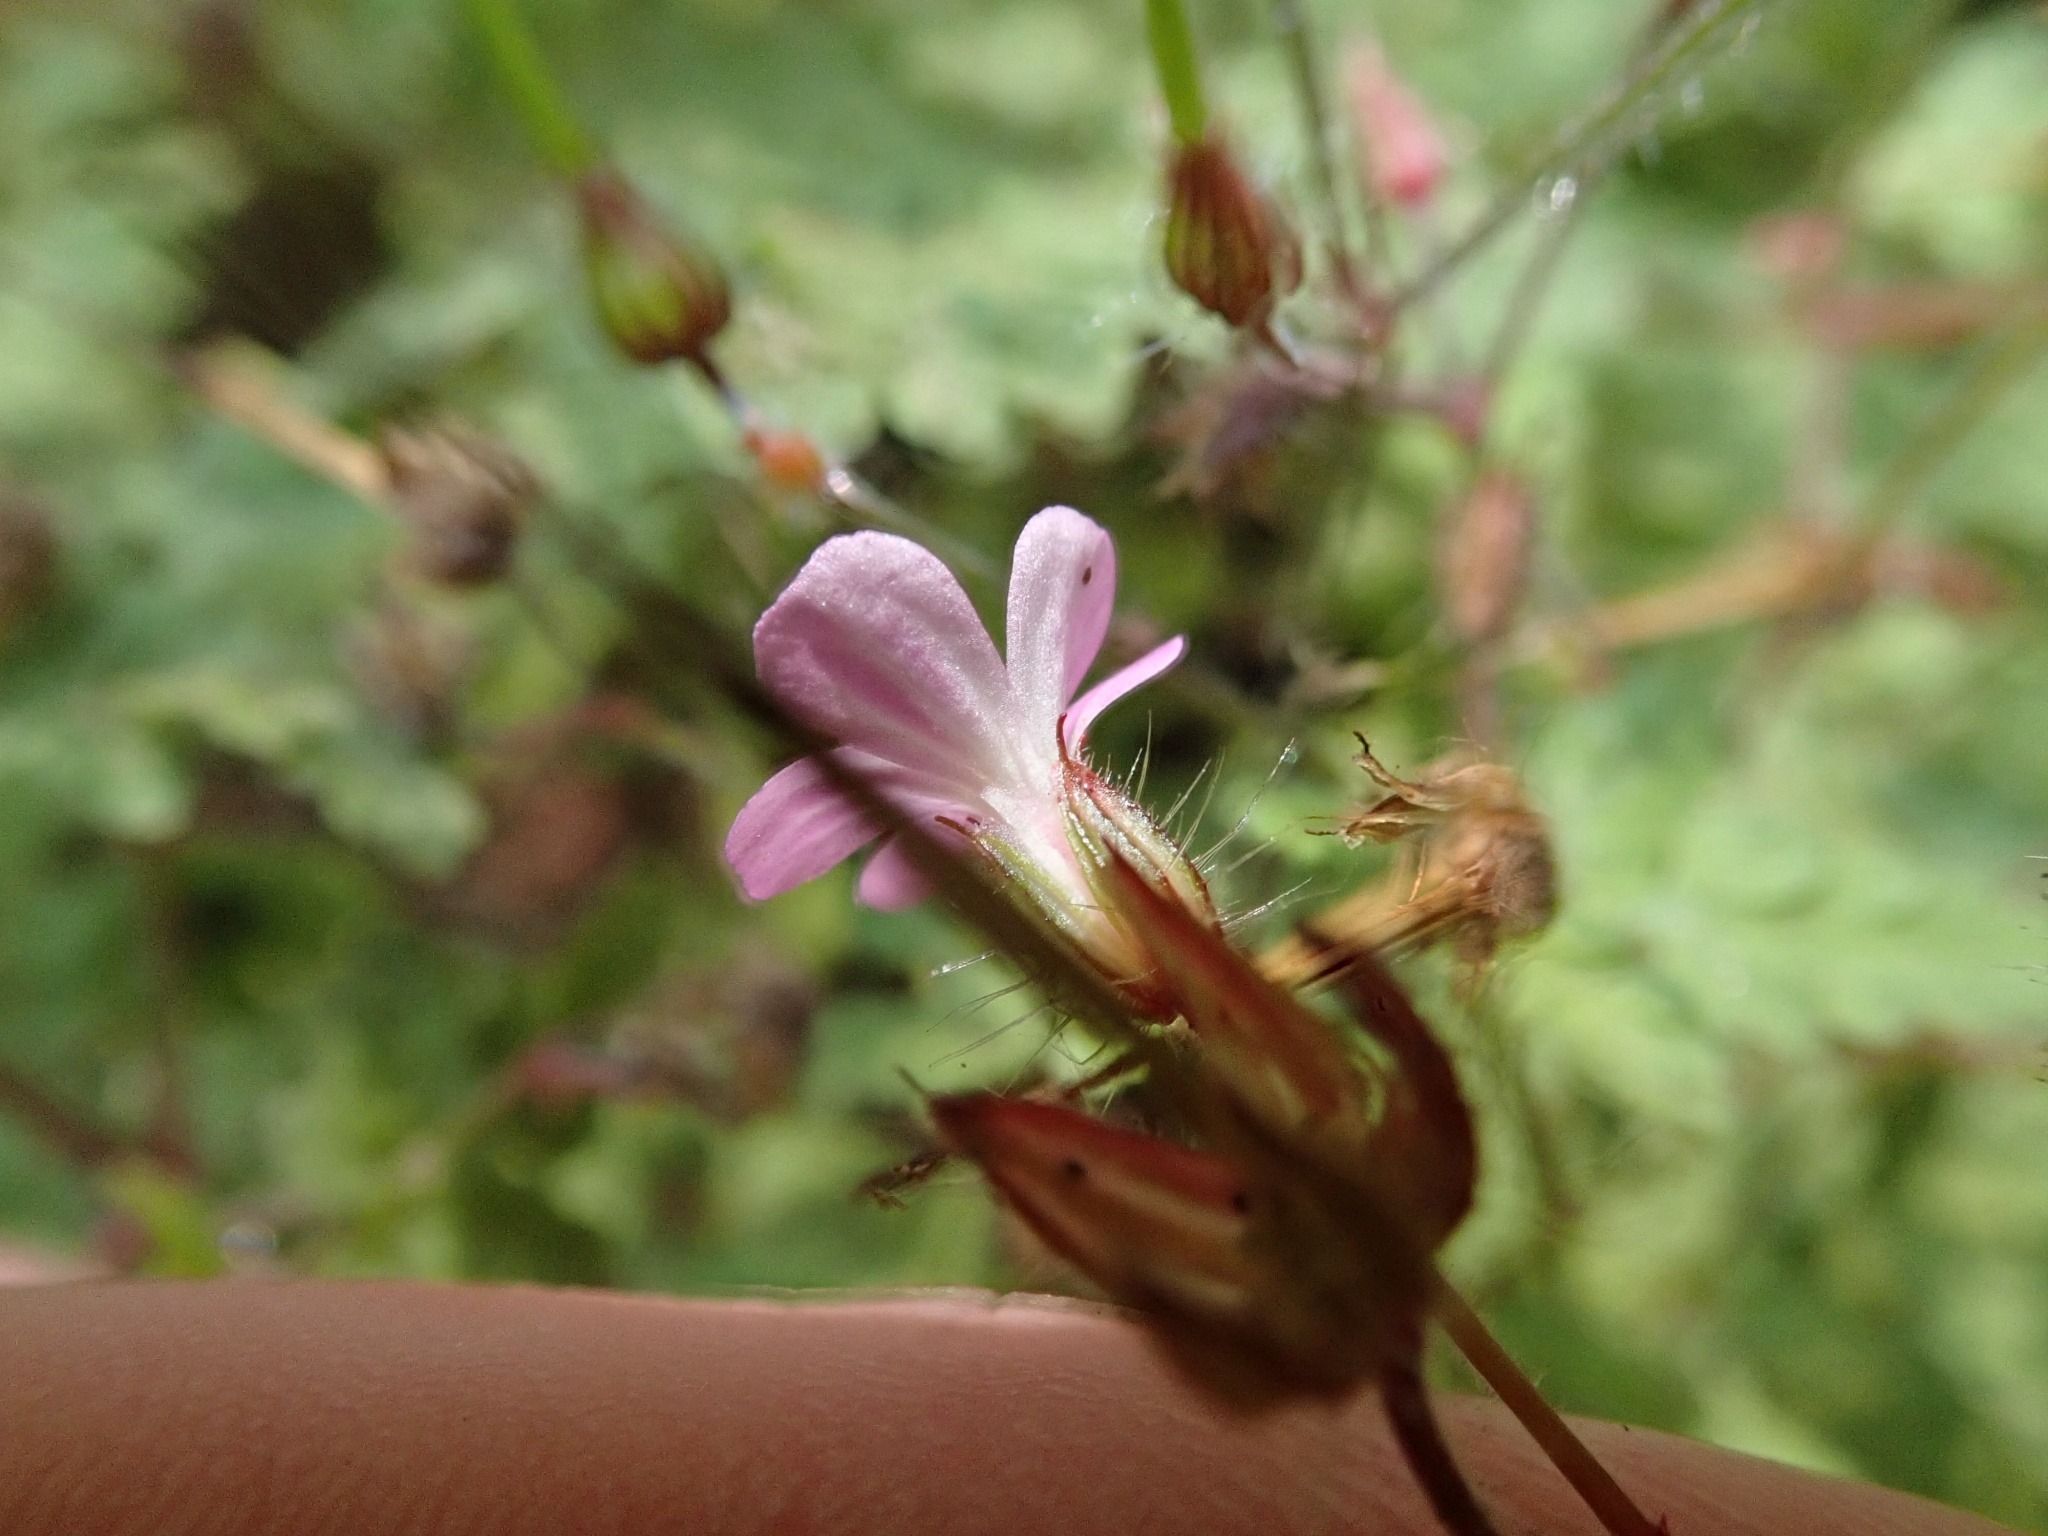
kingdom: Plantae
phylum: Tracheophyta
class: Magnoliopsida
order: Geraniales
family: Geraniaceae
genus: Geranium
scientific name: Geranium robertianum
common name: Herb-robert
